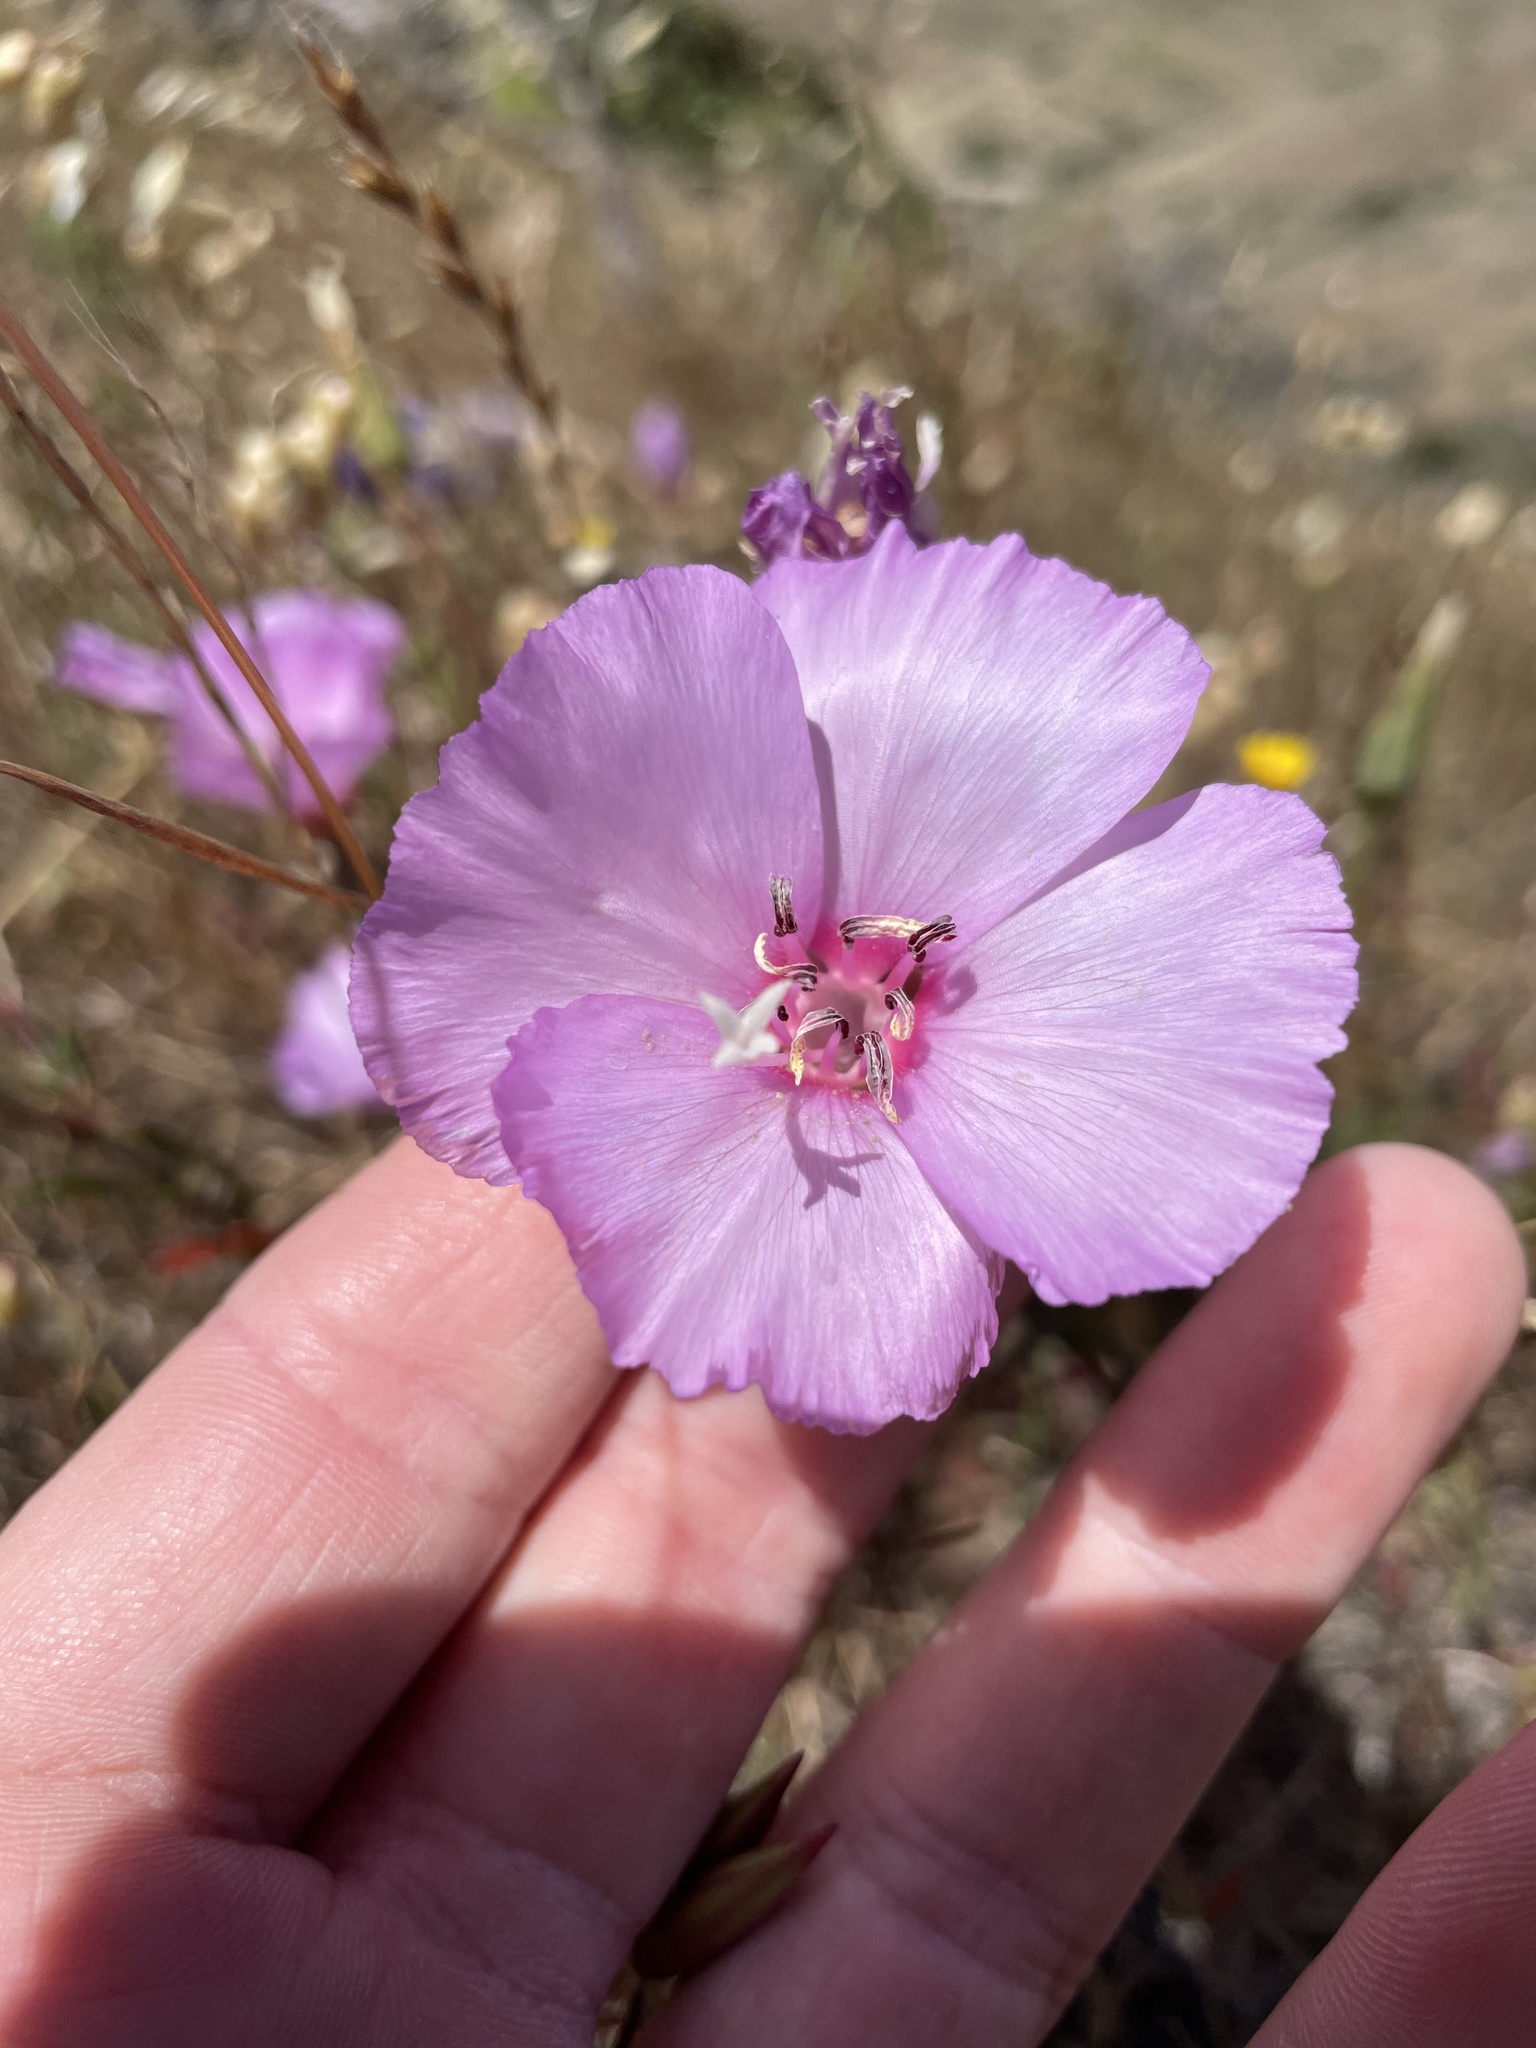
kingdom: Plantae
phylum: Tracheophyta
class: Magnoliopsida
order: Myrtales
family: Onagraceae
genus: Clarkia
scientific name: Clarkia rubicunda
